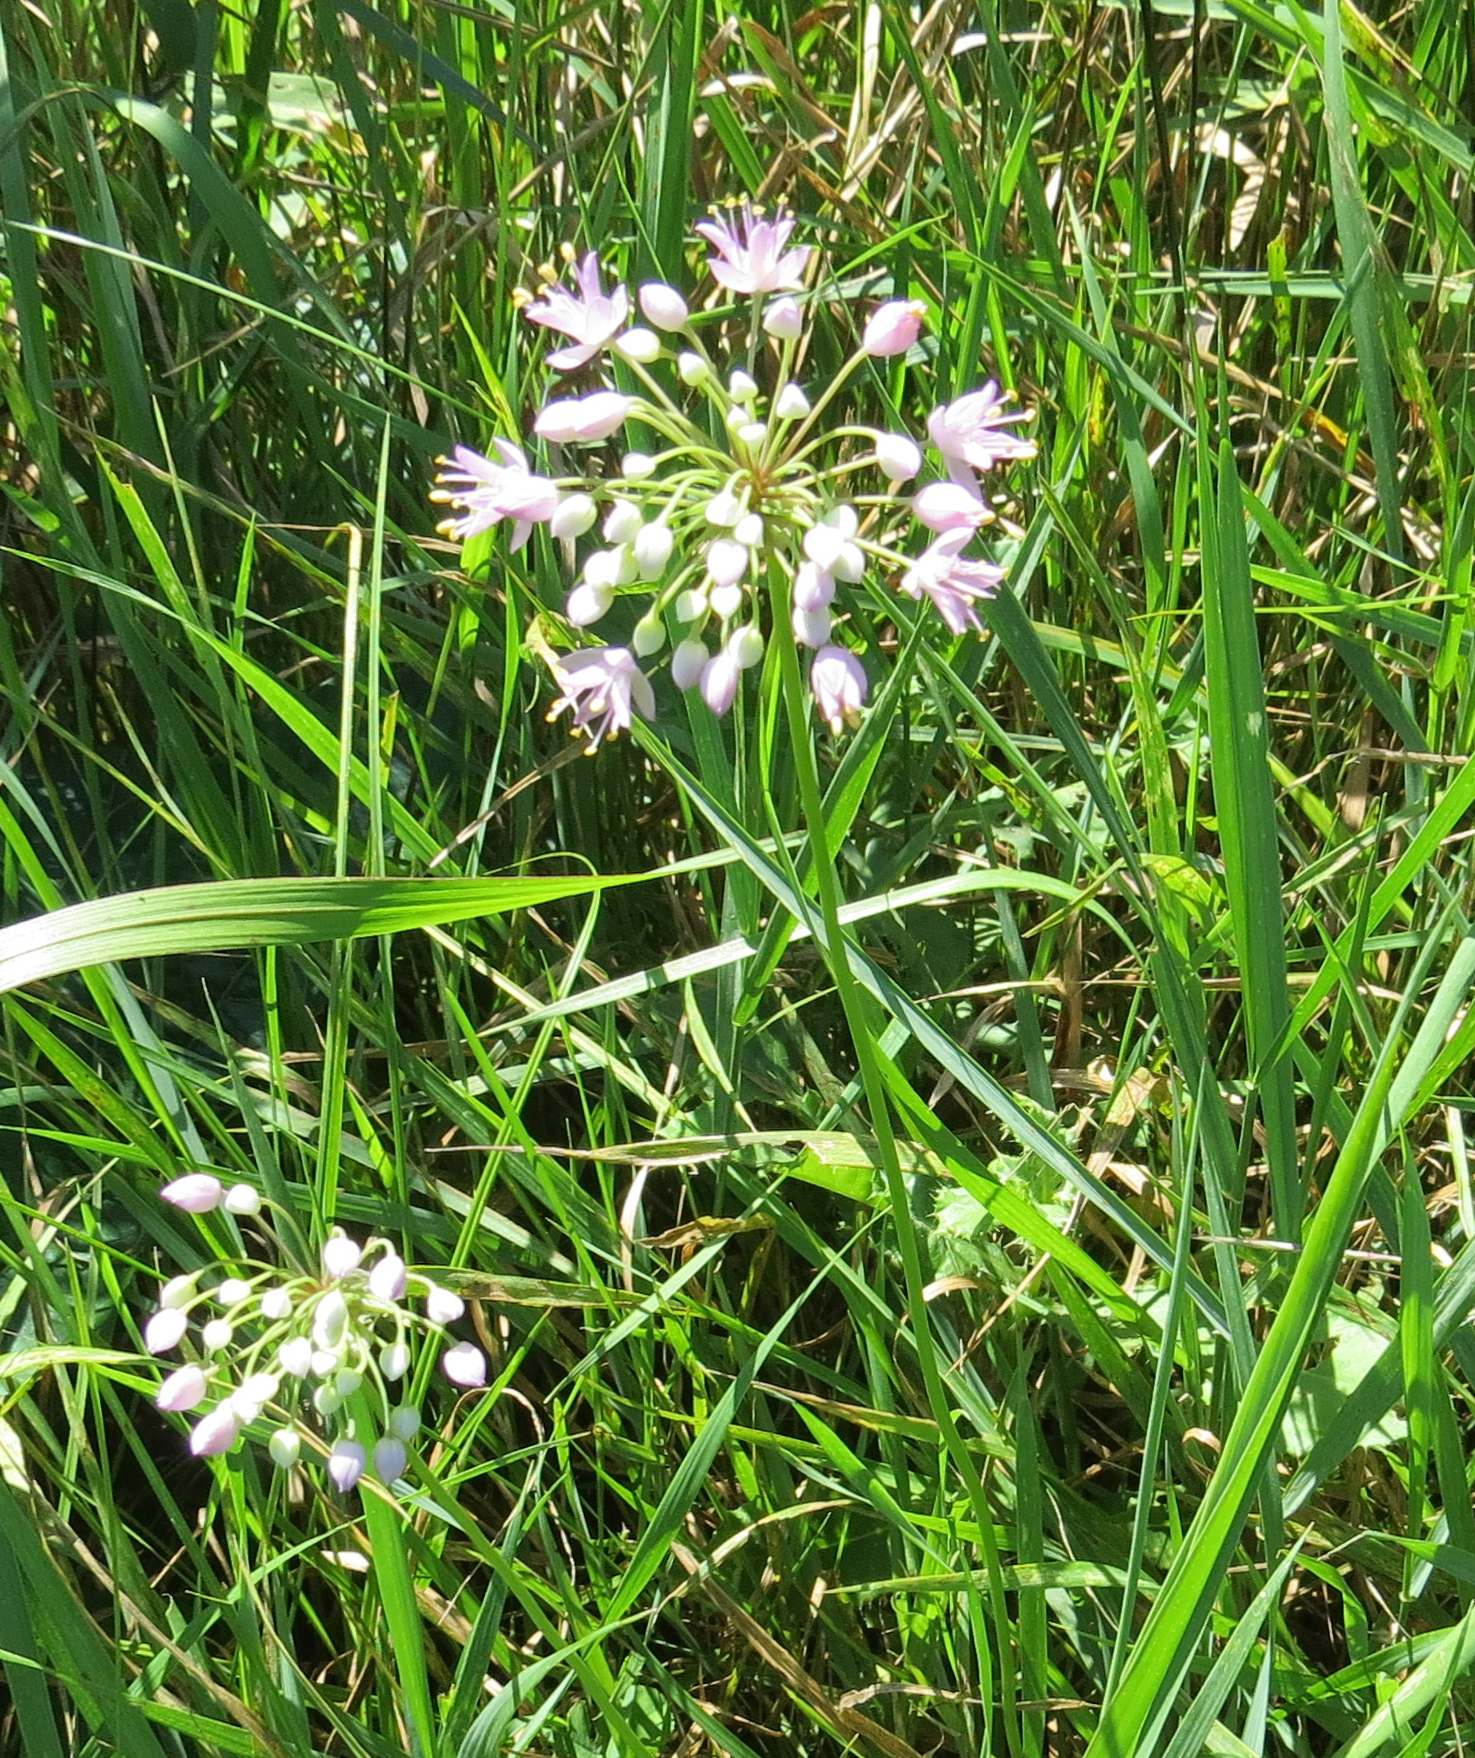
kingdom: Plantae
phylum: Tracheophyta
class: Liliopsida
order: Asparagales
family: Amaryllidaceae
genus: Allium
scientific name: Allium stellatum
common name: Autumn onion
